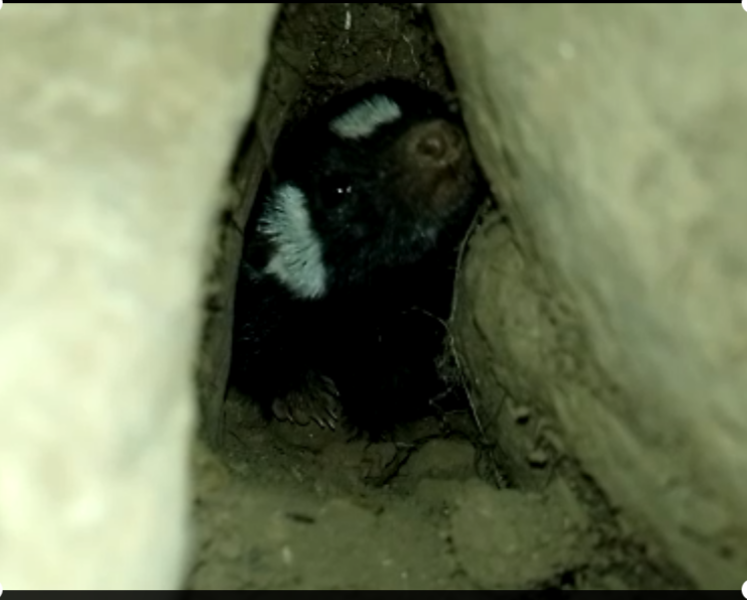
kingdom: Animalia
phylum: Chordata
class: Mammalia
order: Carnivora
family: Mephitidae
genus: Spilogale
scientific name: Spilogale angustifrons
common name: Southern spotted skunk
